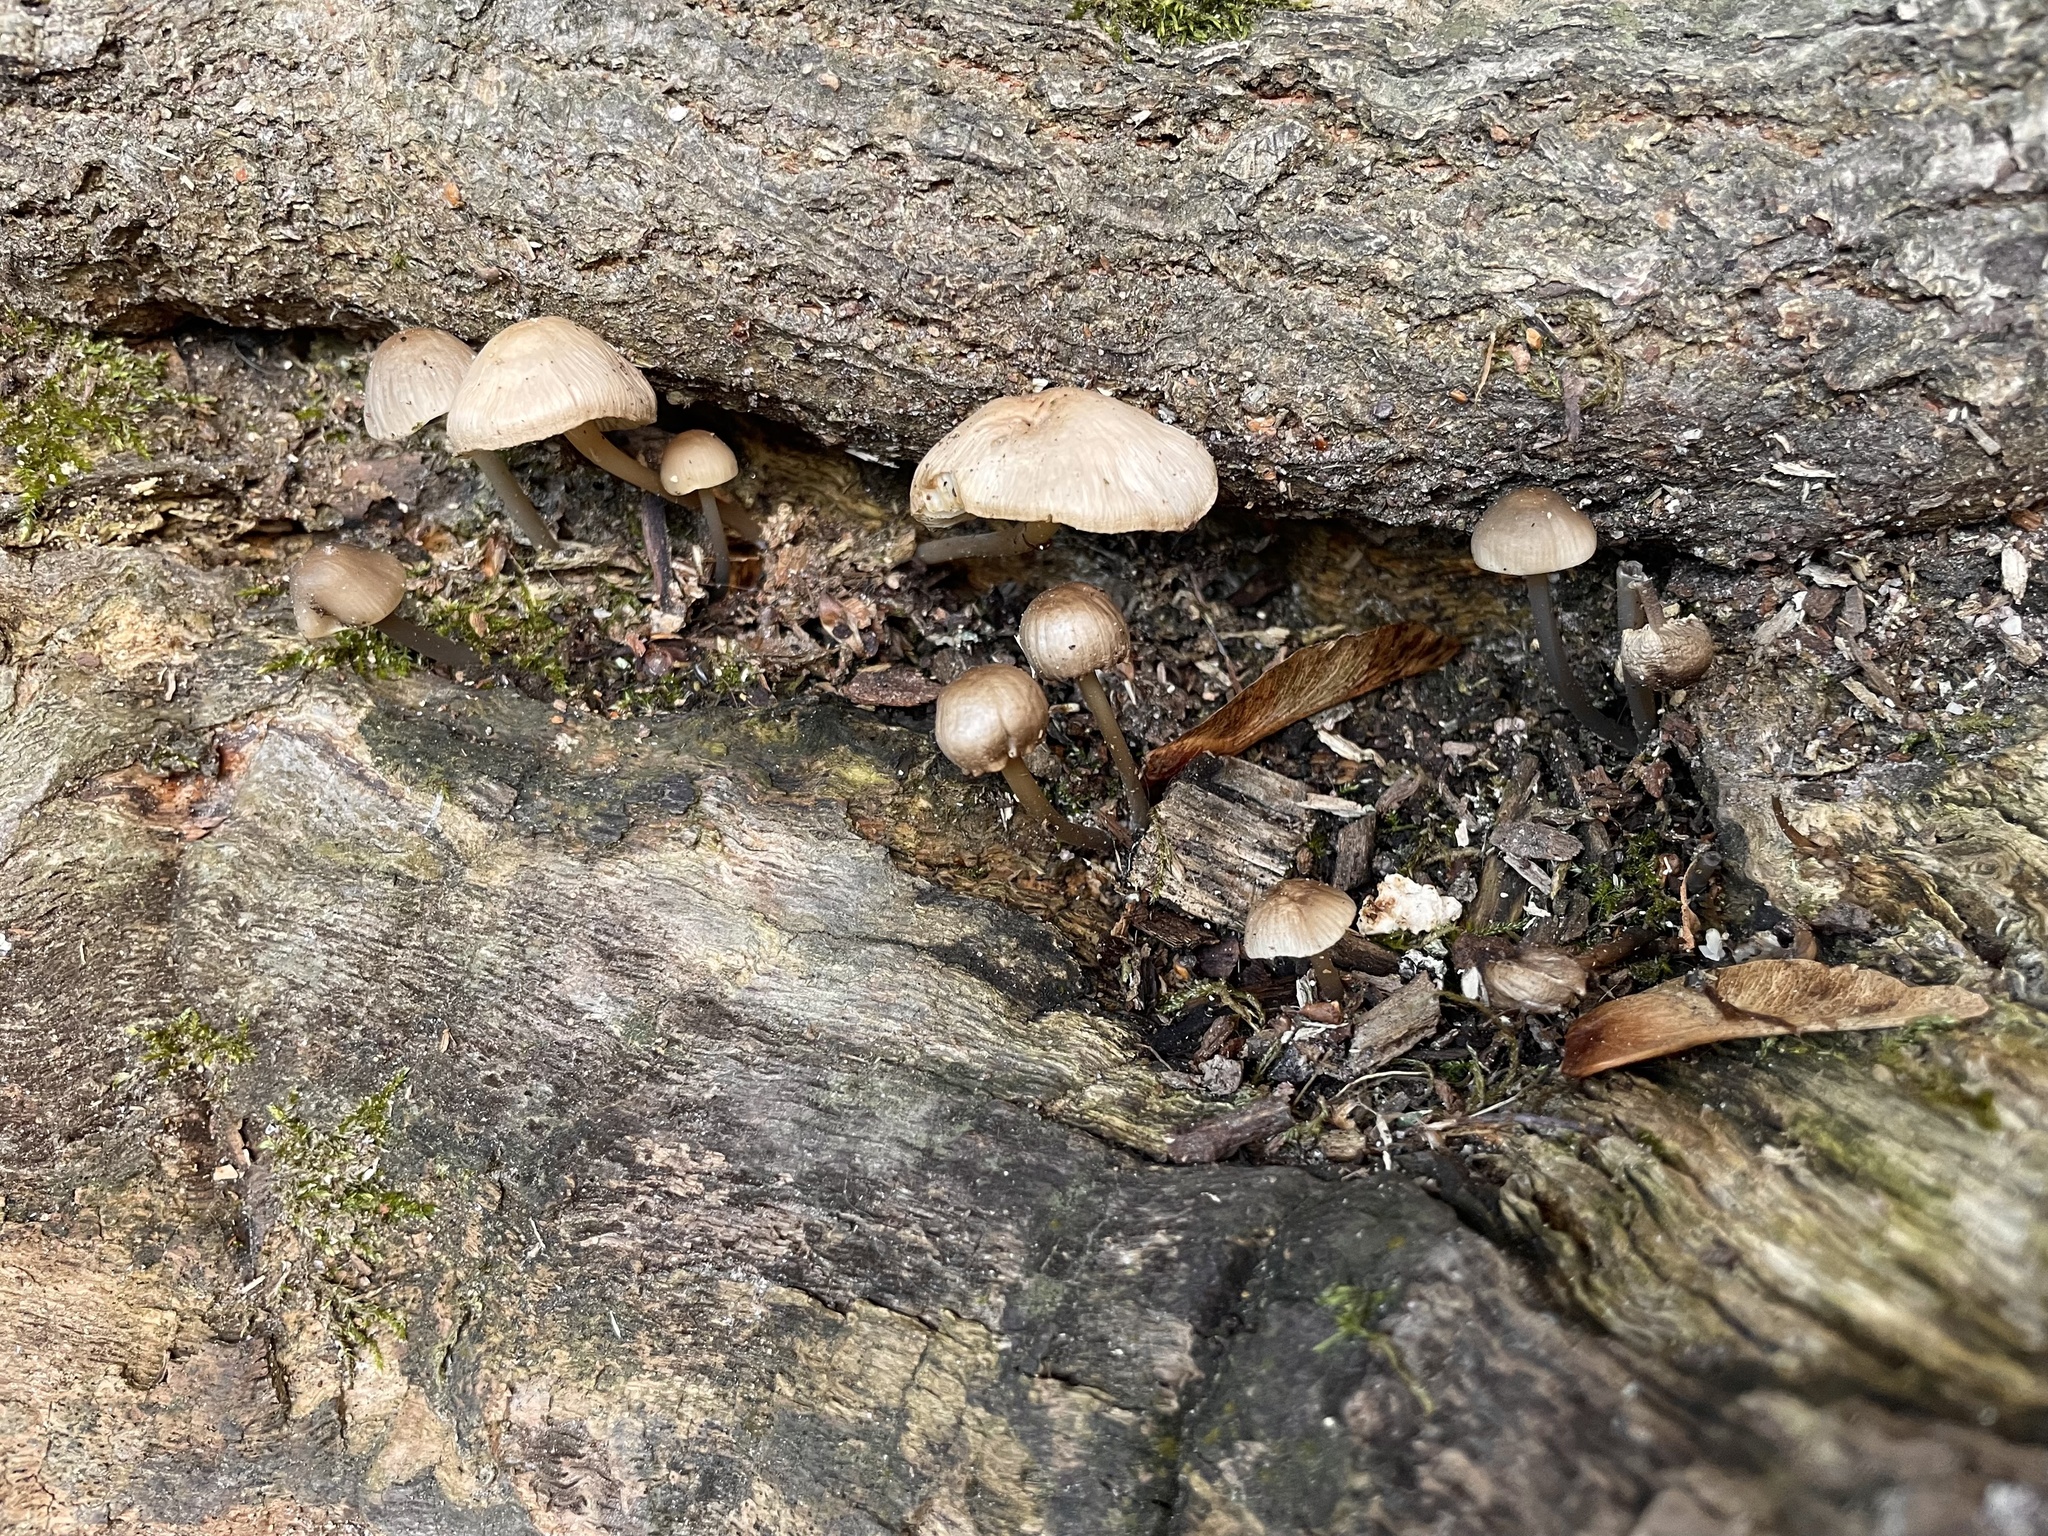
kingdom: Fungi
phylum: Basidiomycota
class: Agaricomycetes
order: Agaricales
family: Mycenaceae
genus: Mycena
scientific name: Mycena galericulata
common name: Bonnet mycena
